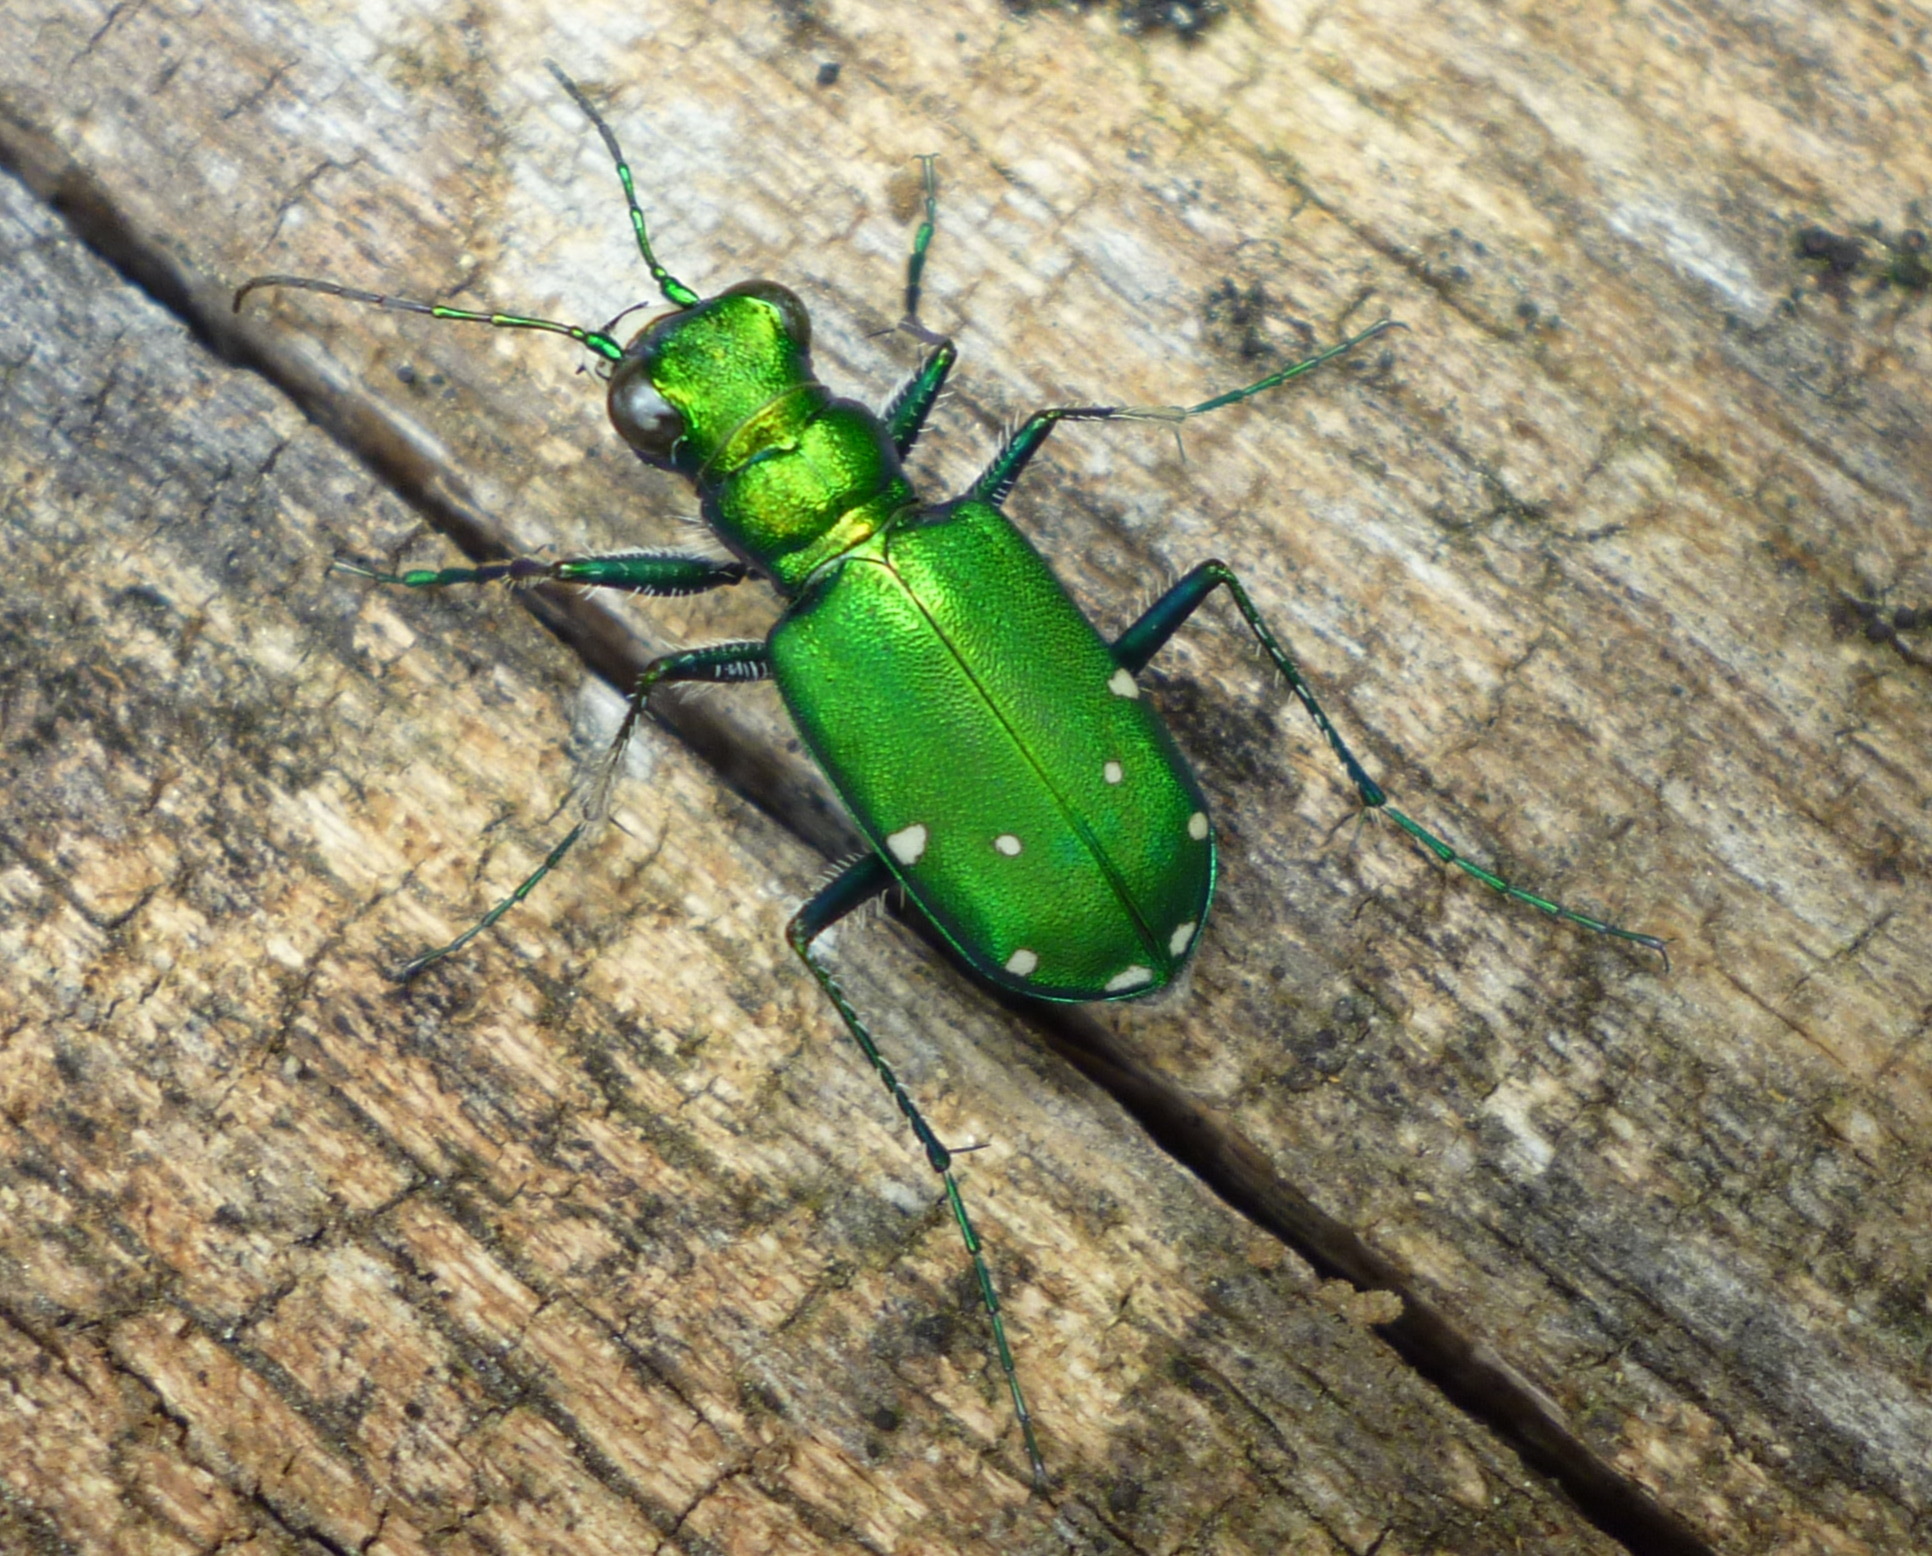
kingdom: Animalia
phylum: Arthropoda
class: Insecta
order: Coleoptera
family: Carabidae
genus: Cicindela
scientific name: Cicindela sexguttata
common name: Six-spotted tiger beetle
